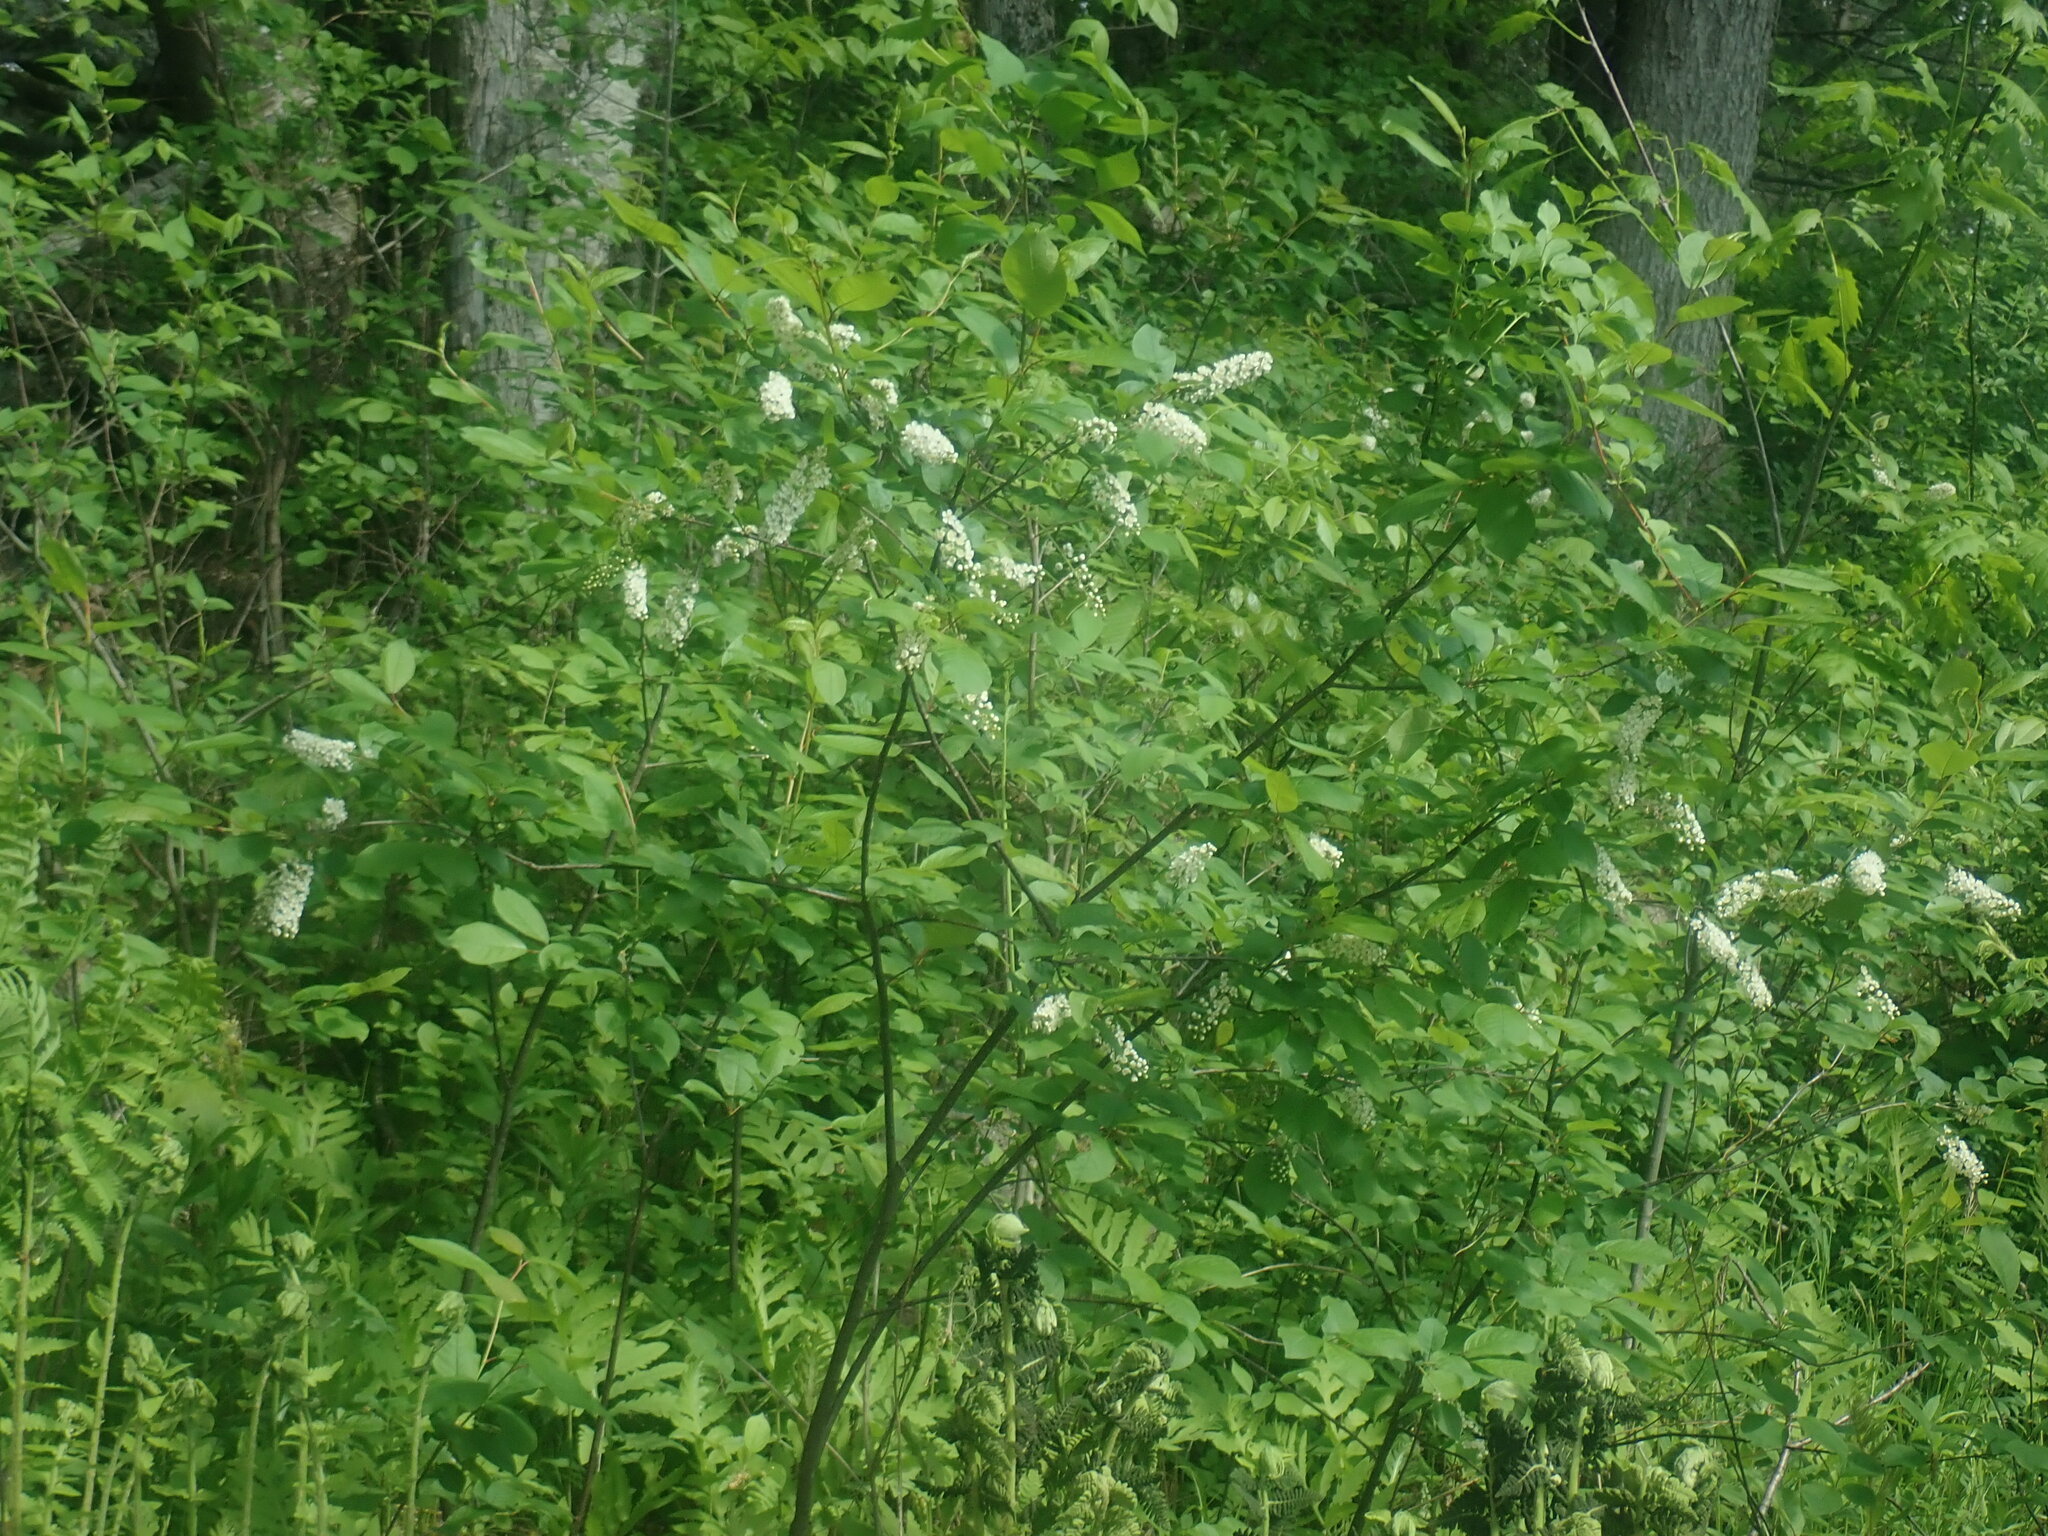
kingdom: Plantae
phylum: Tracheophyta
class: Magnoliopsida
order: Rosales
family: Rosaceae
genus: Prunus
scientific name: Prunus virginiana
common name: Chokecherry
